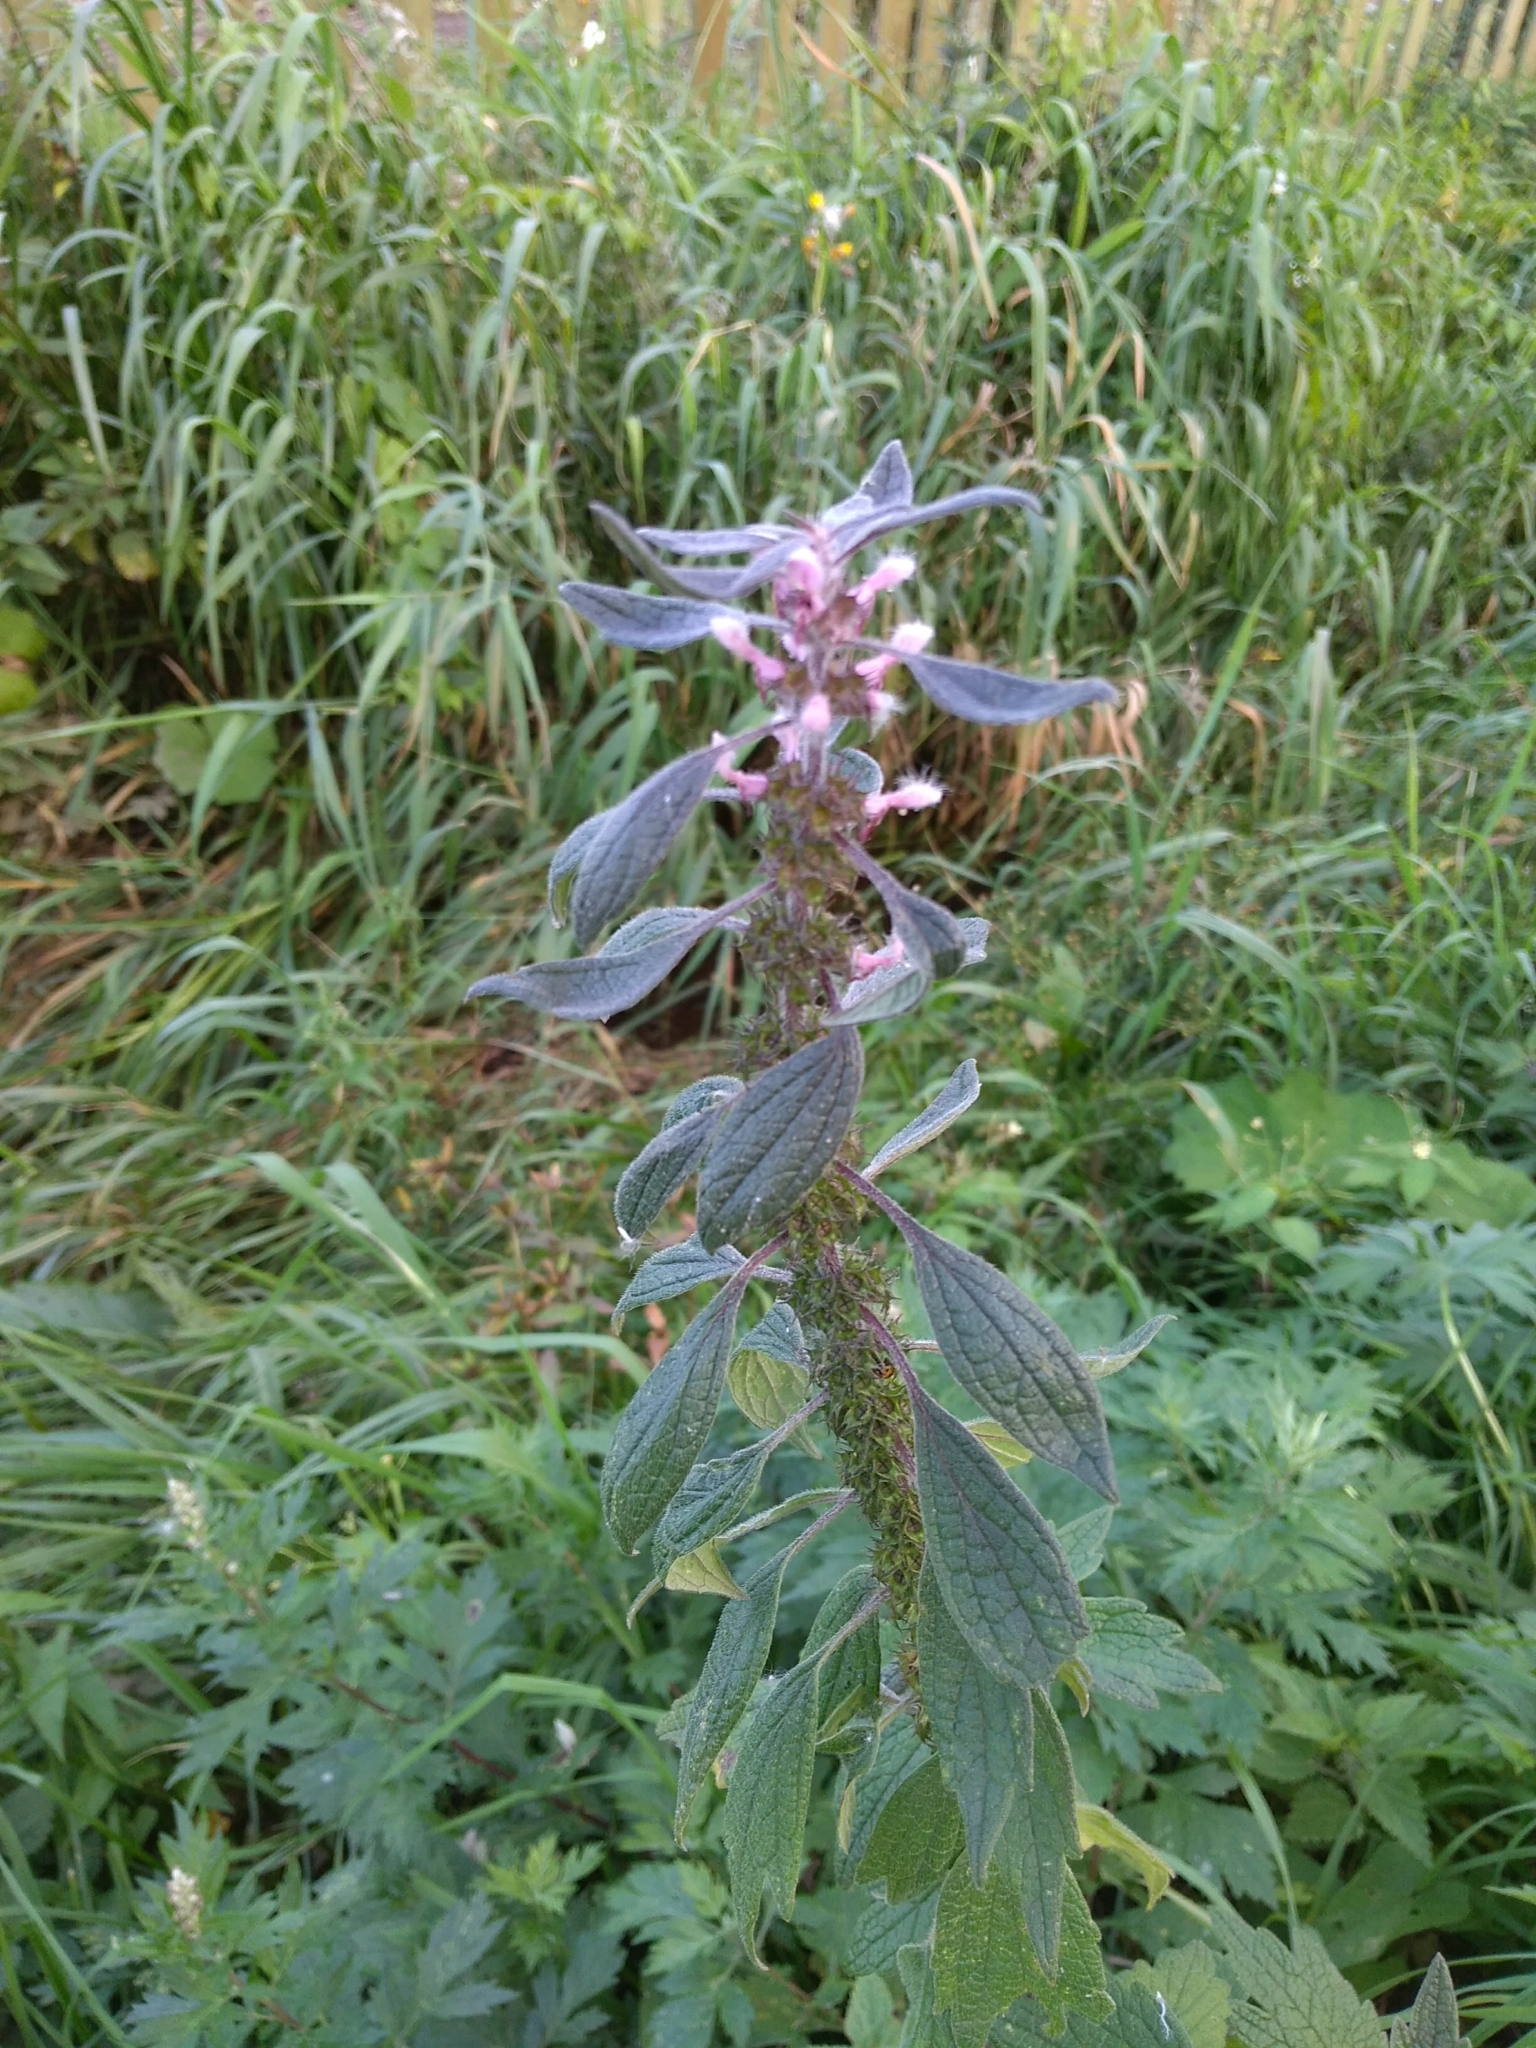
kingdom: Plantae
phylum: Tracheophyta
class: Magnoliopsida
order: Lamiales
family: Lamiaceae
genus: Leonurus
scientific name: Leonurus quinquelobatus
